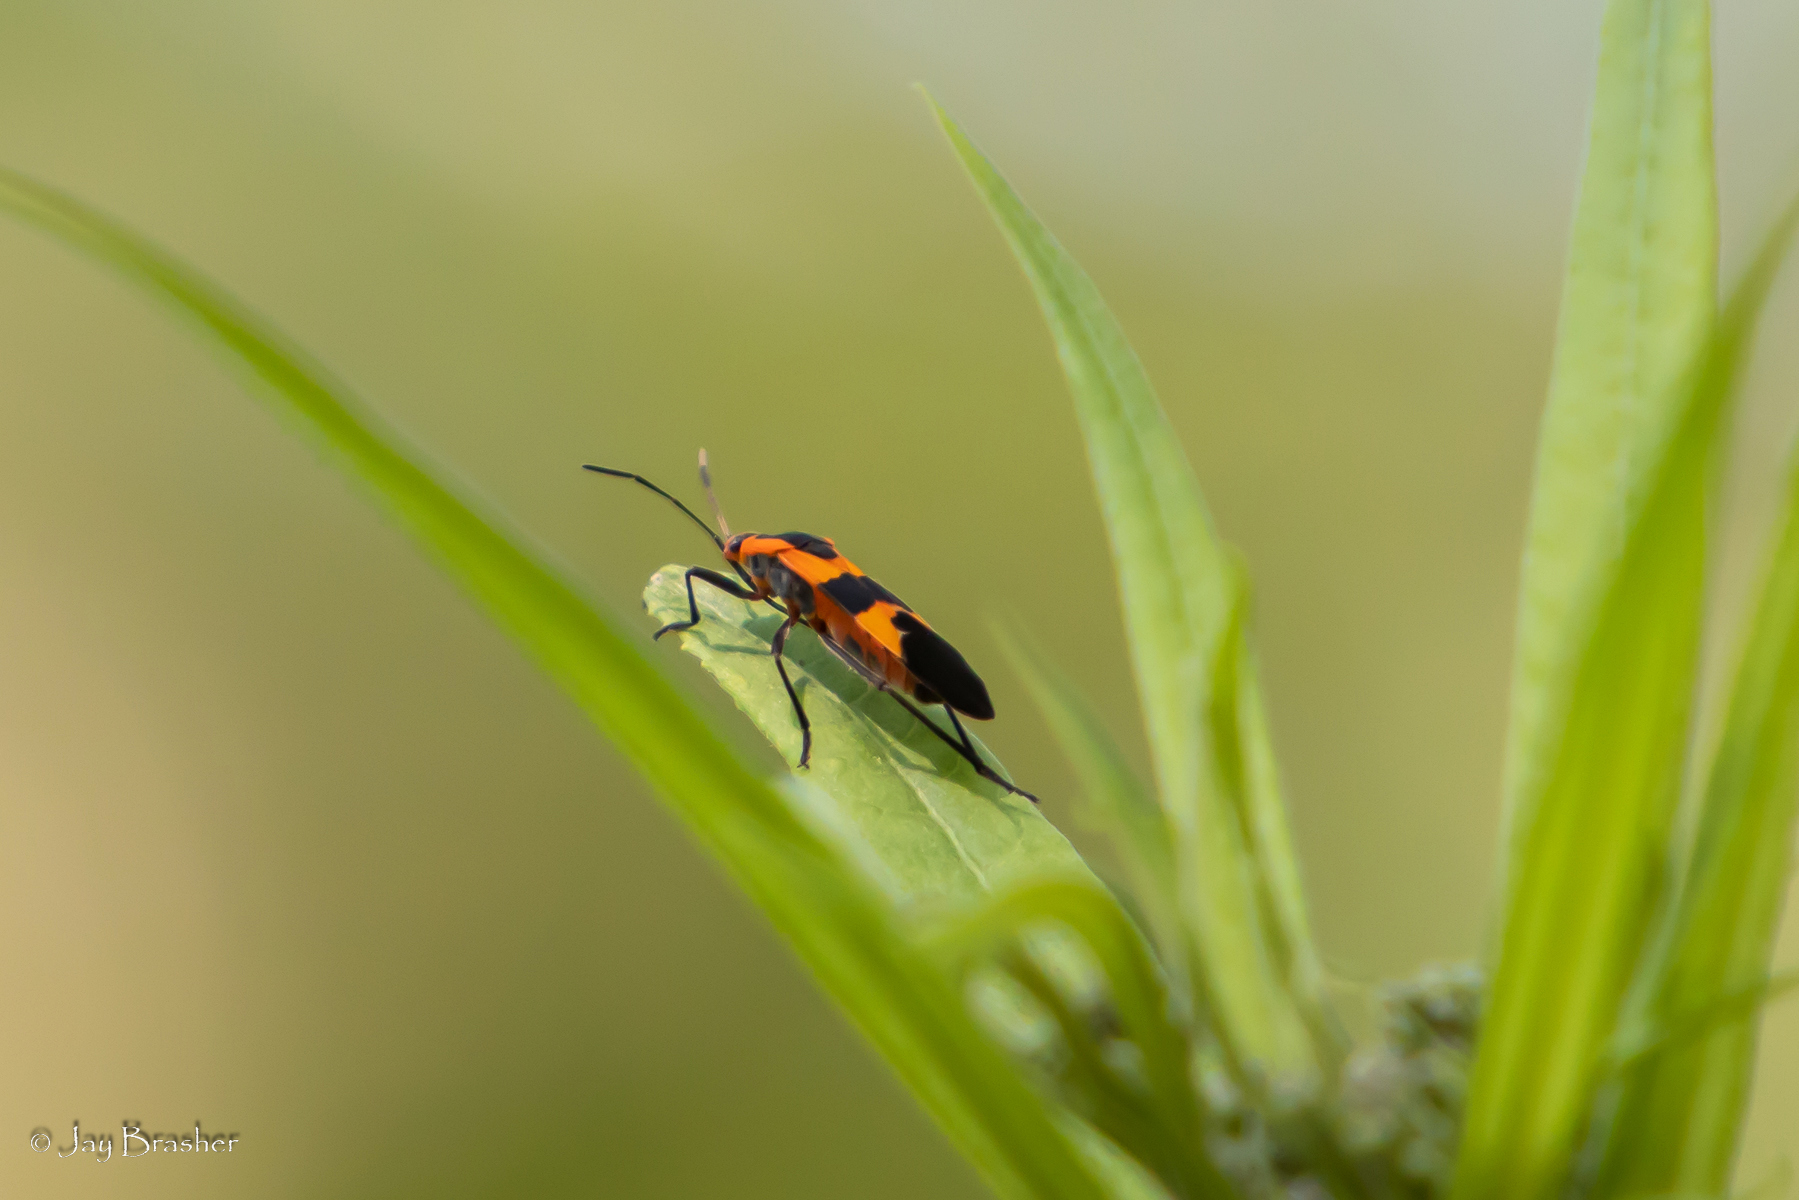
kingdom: Animalia
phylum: Arthropoda
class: Insecta
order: Hemiptera
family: Lygaeidae
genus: Oncopeltus
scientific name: Oncopeltus fasciatus
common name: Large milkweed bug
